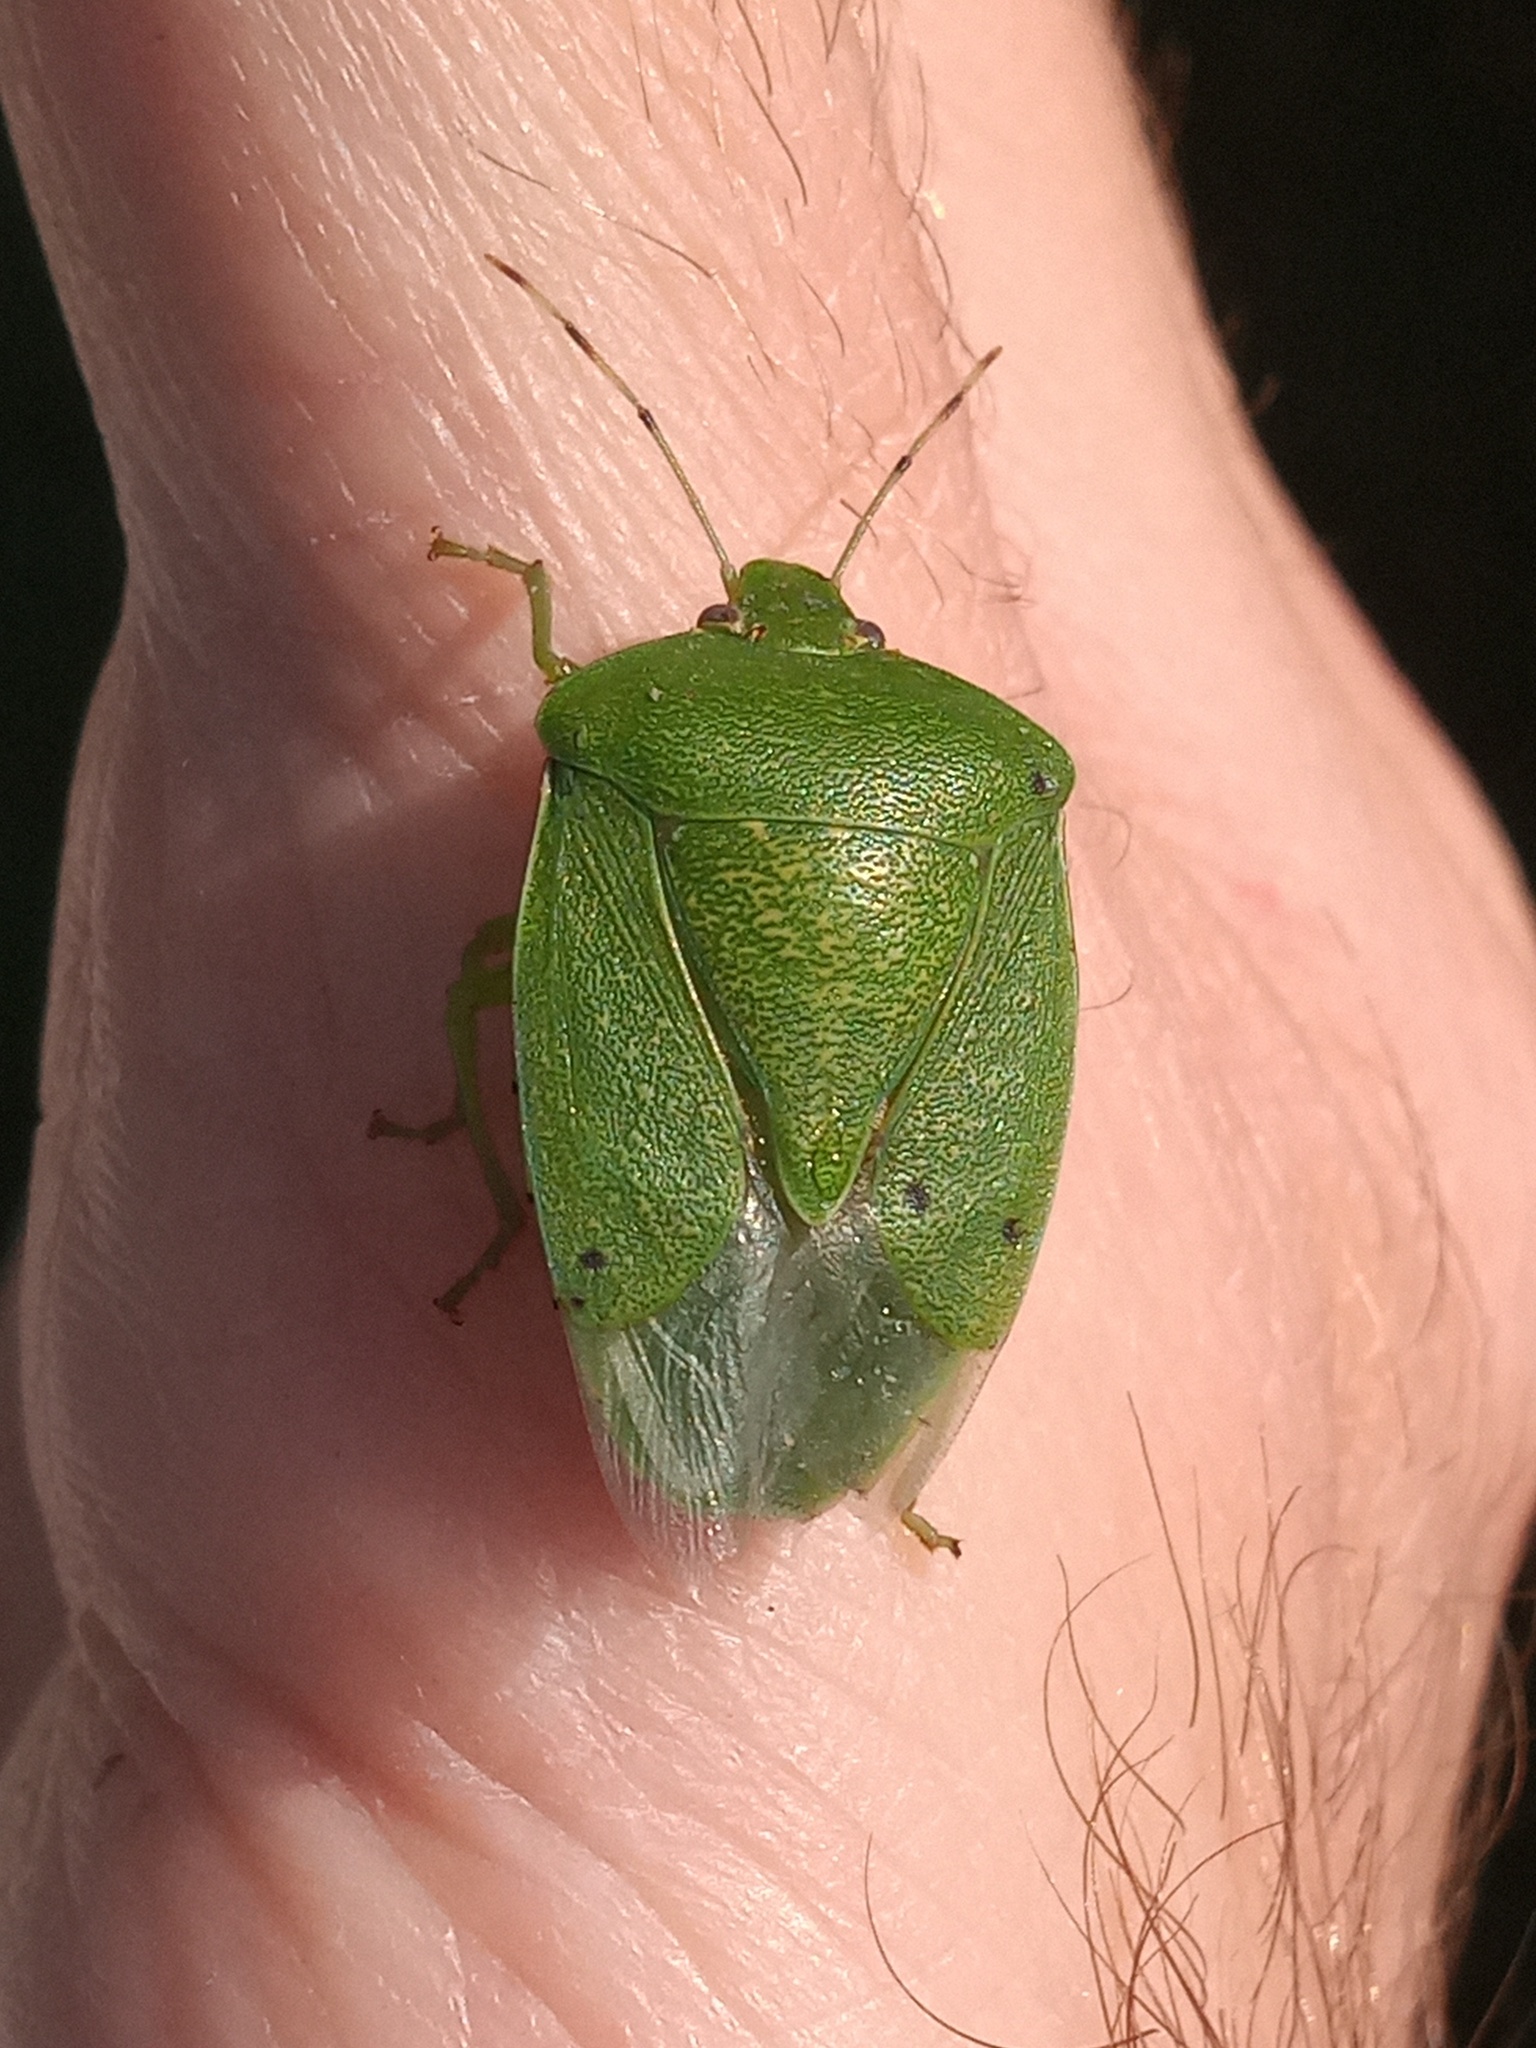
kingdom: Animalia
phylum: Arthropoda
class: Insecta
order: Hemiptera
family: Pentatomidae
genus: Chinavia
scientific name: Chinavia hilaris
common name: Green stink bug
